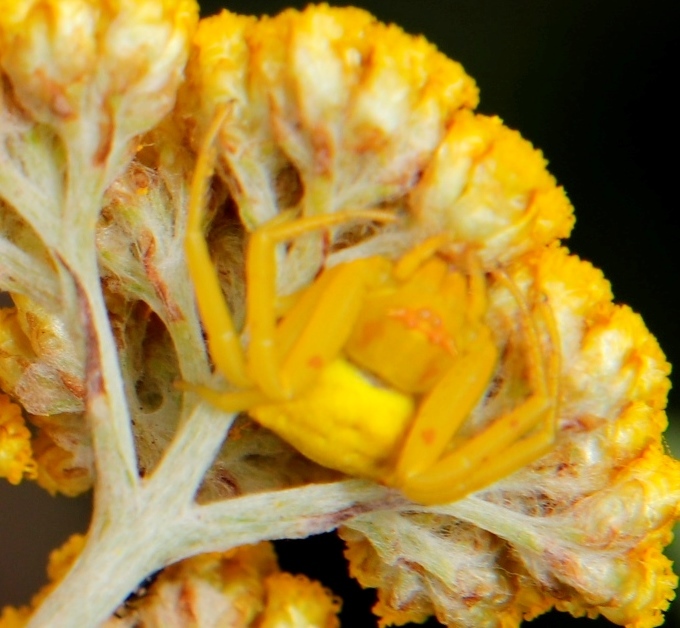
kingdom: Animalia
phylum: Arthropoda
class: Arachnida
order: Araneae
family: Thomisidae
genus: Thomisus
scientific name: Thomisus australis
